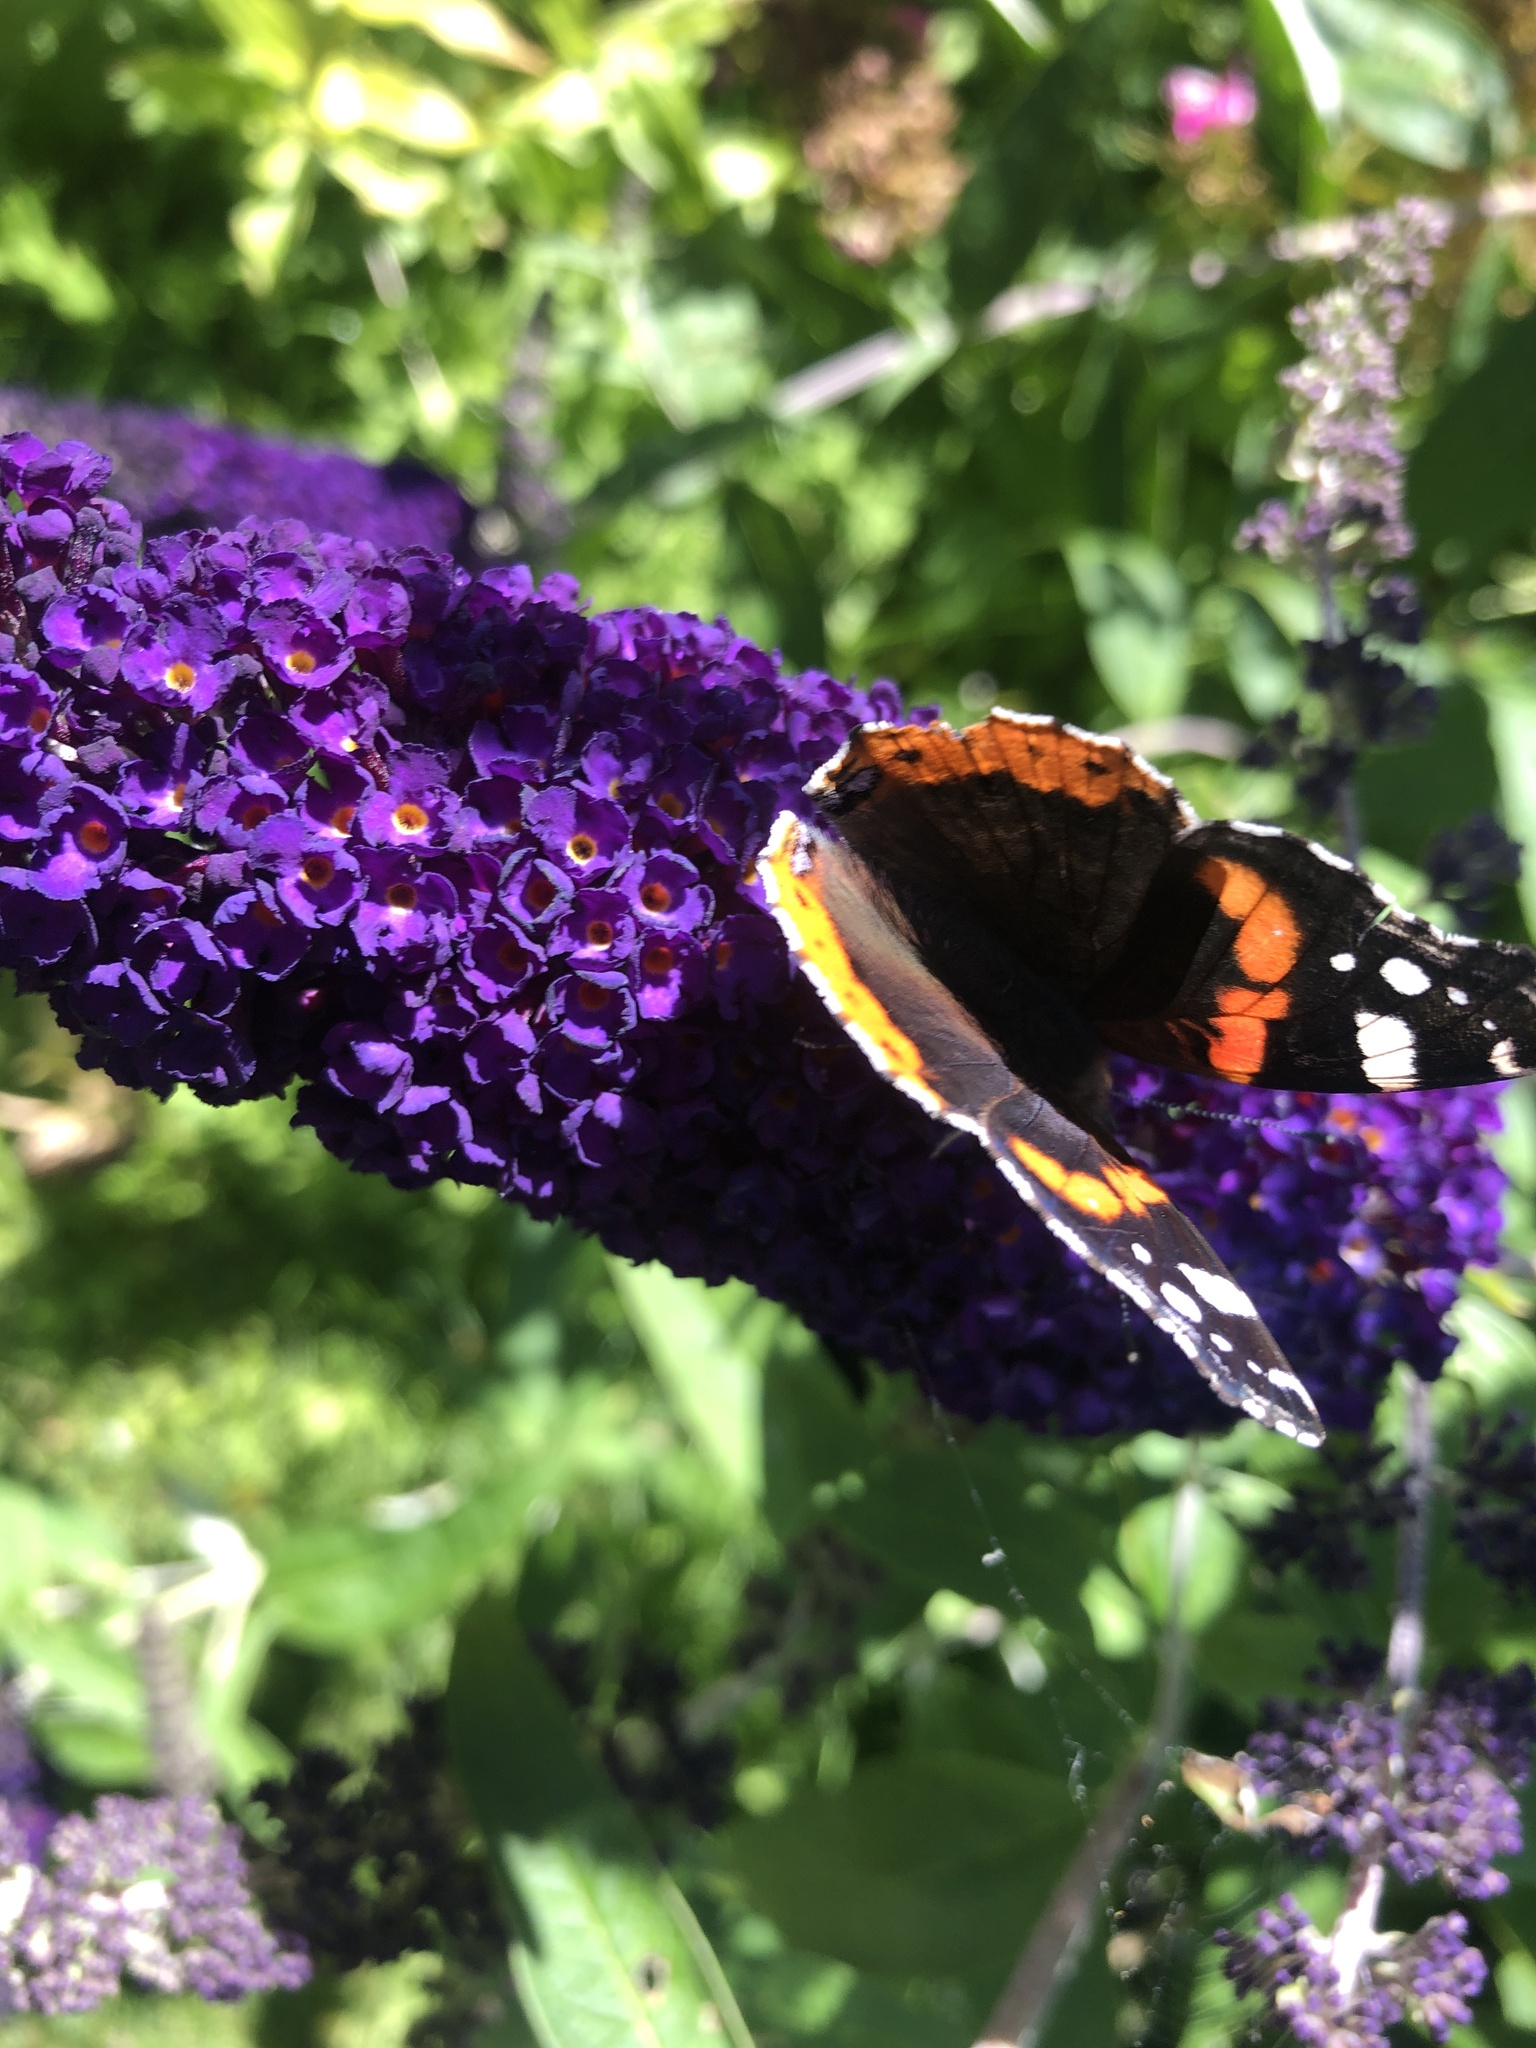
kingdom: Animalia
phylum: Arthropoda
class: Insecta
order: Lepidoptera
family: Nymphalidae
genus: Vanessa
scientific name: Vanessa atalanta
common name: Red admiral
